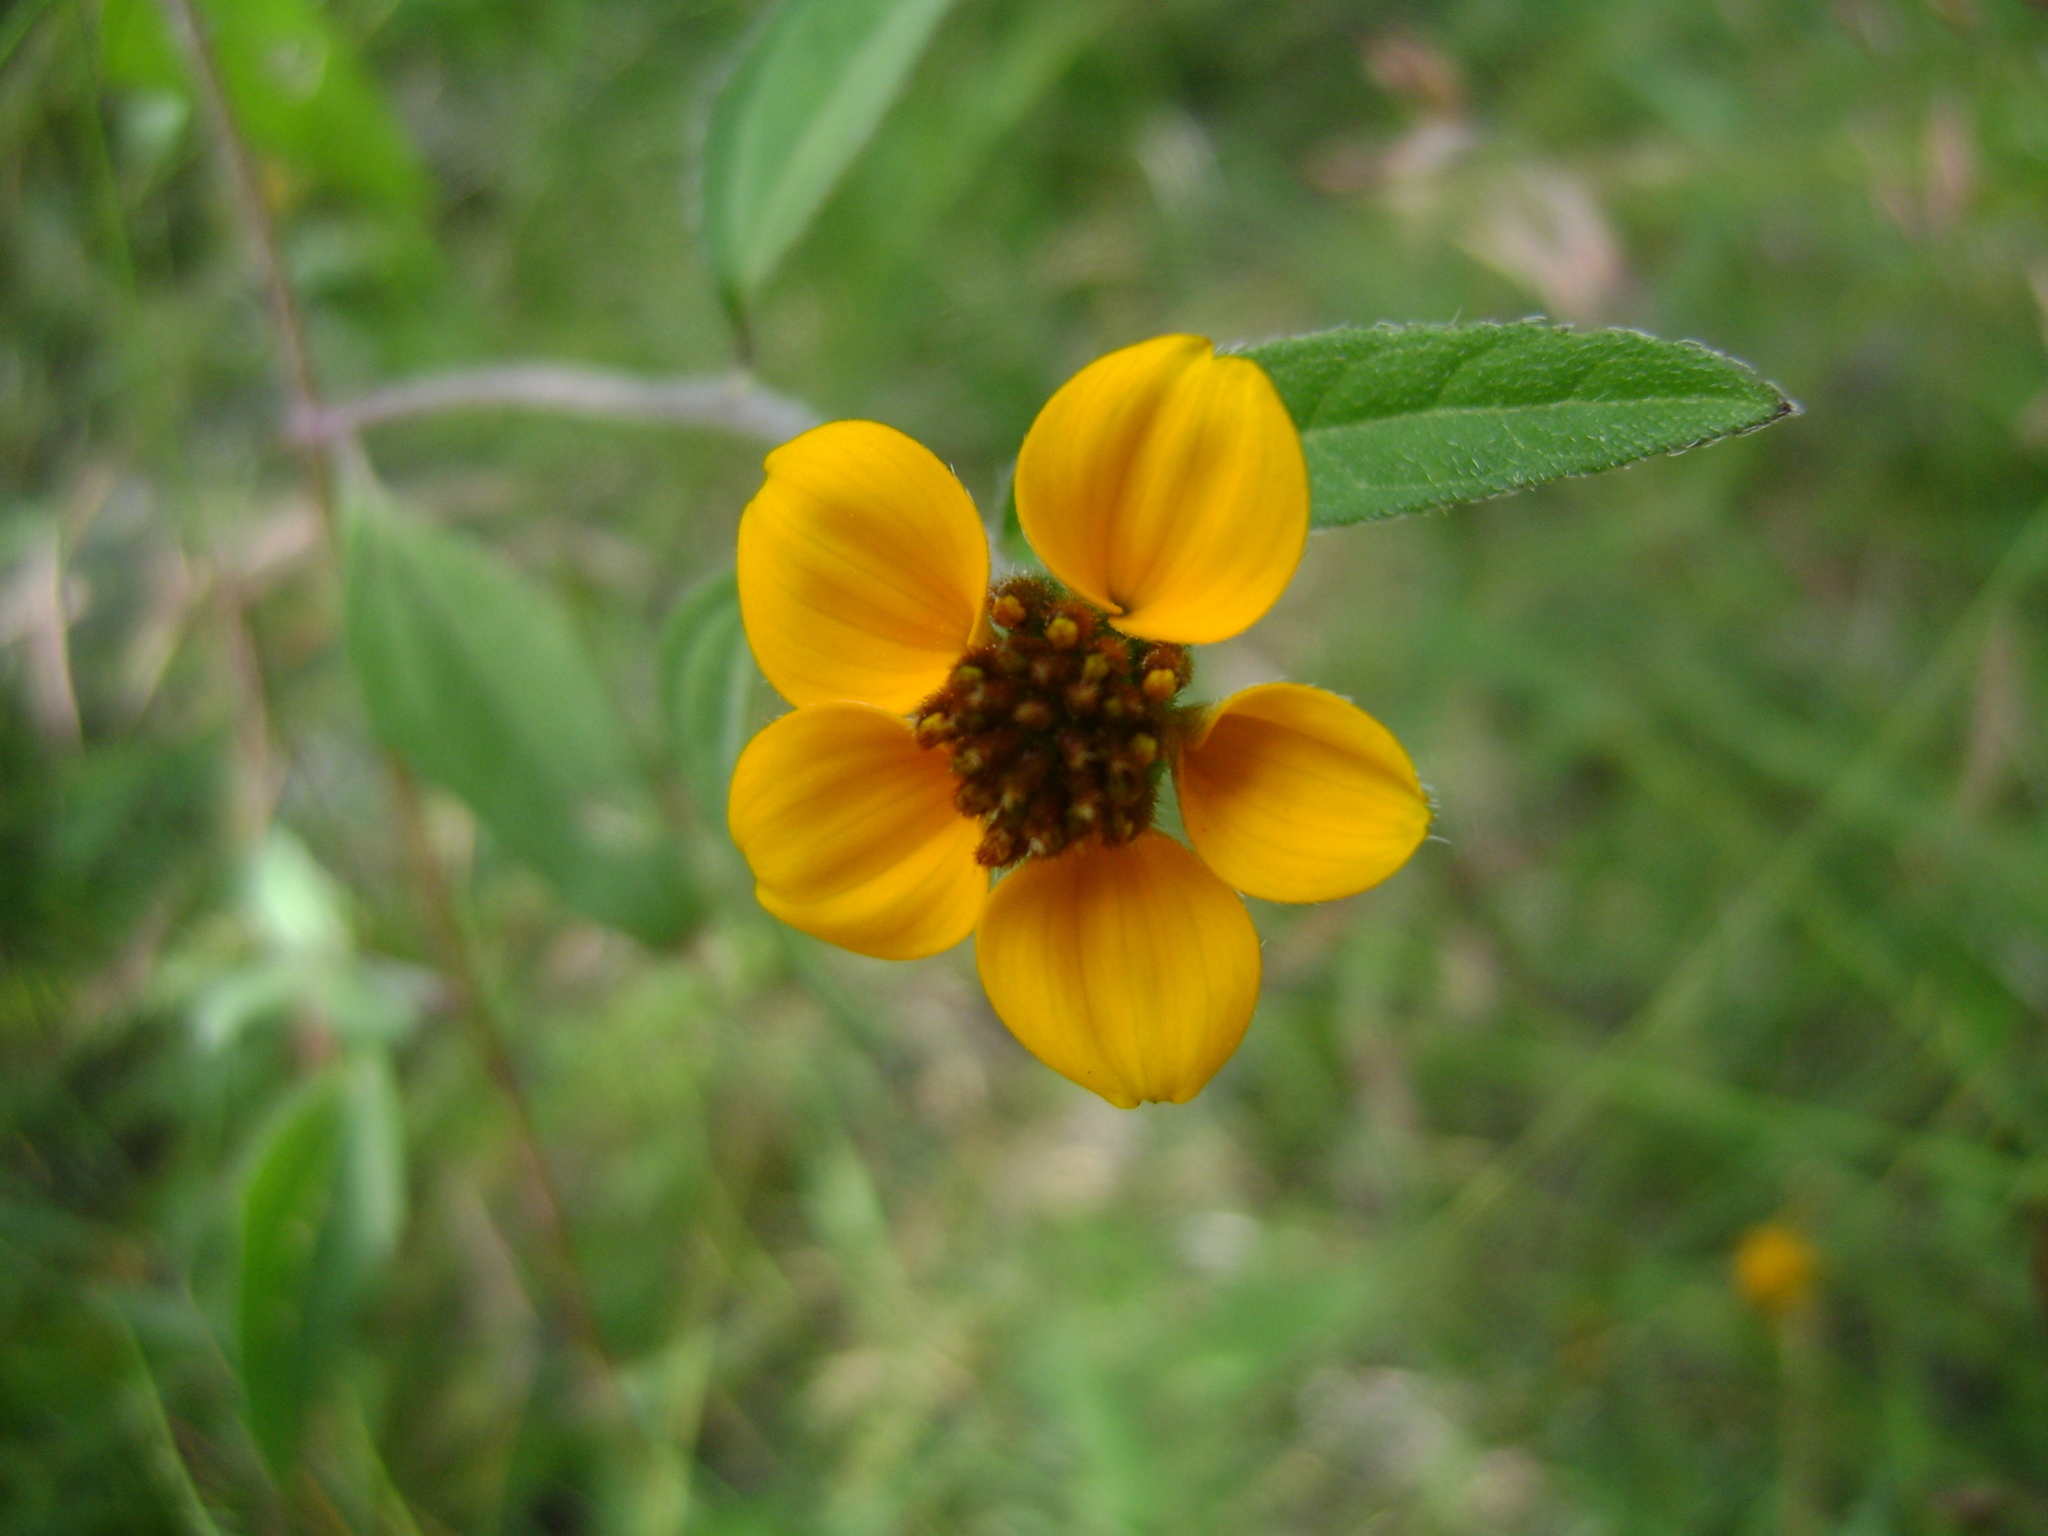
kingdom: Plantae
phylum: Tracheophyta
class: Magnoliopsida
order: Asterales
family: Asteraceae
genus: Sclerocarpus
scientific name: Sclerocarpus uniserialis
